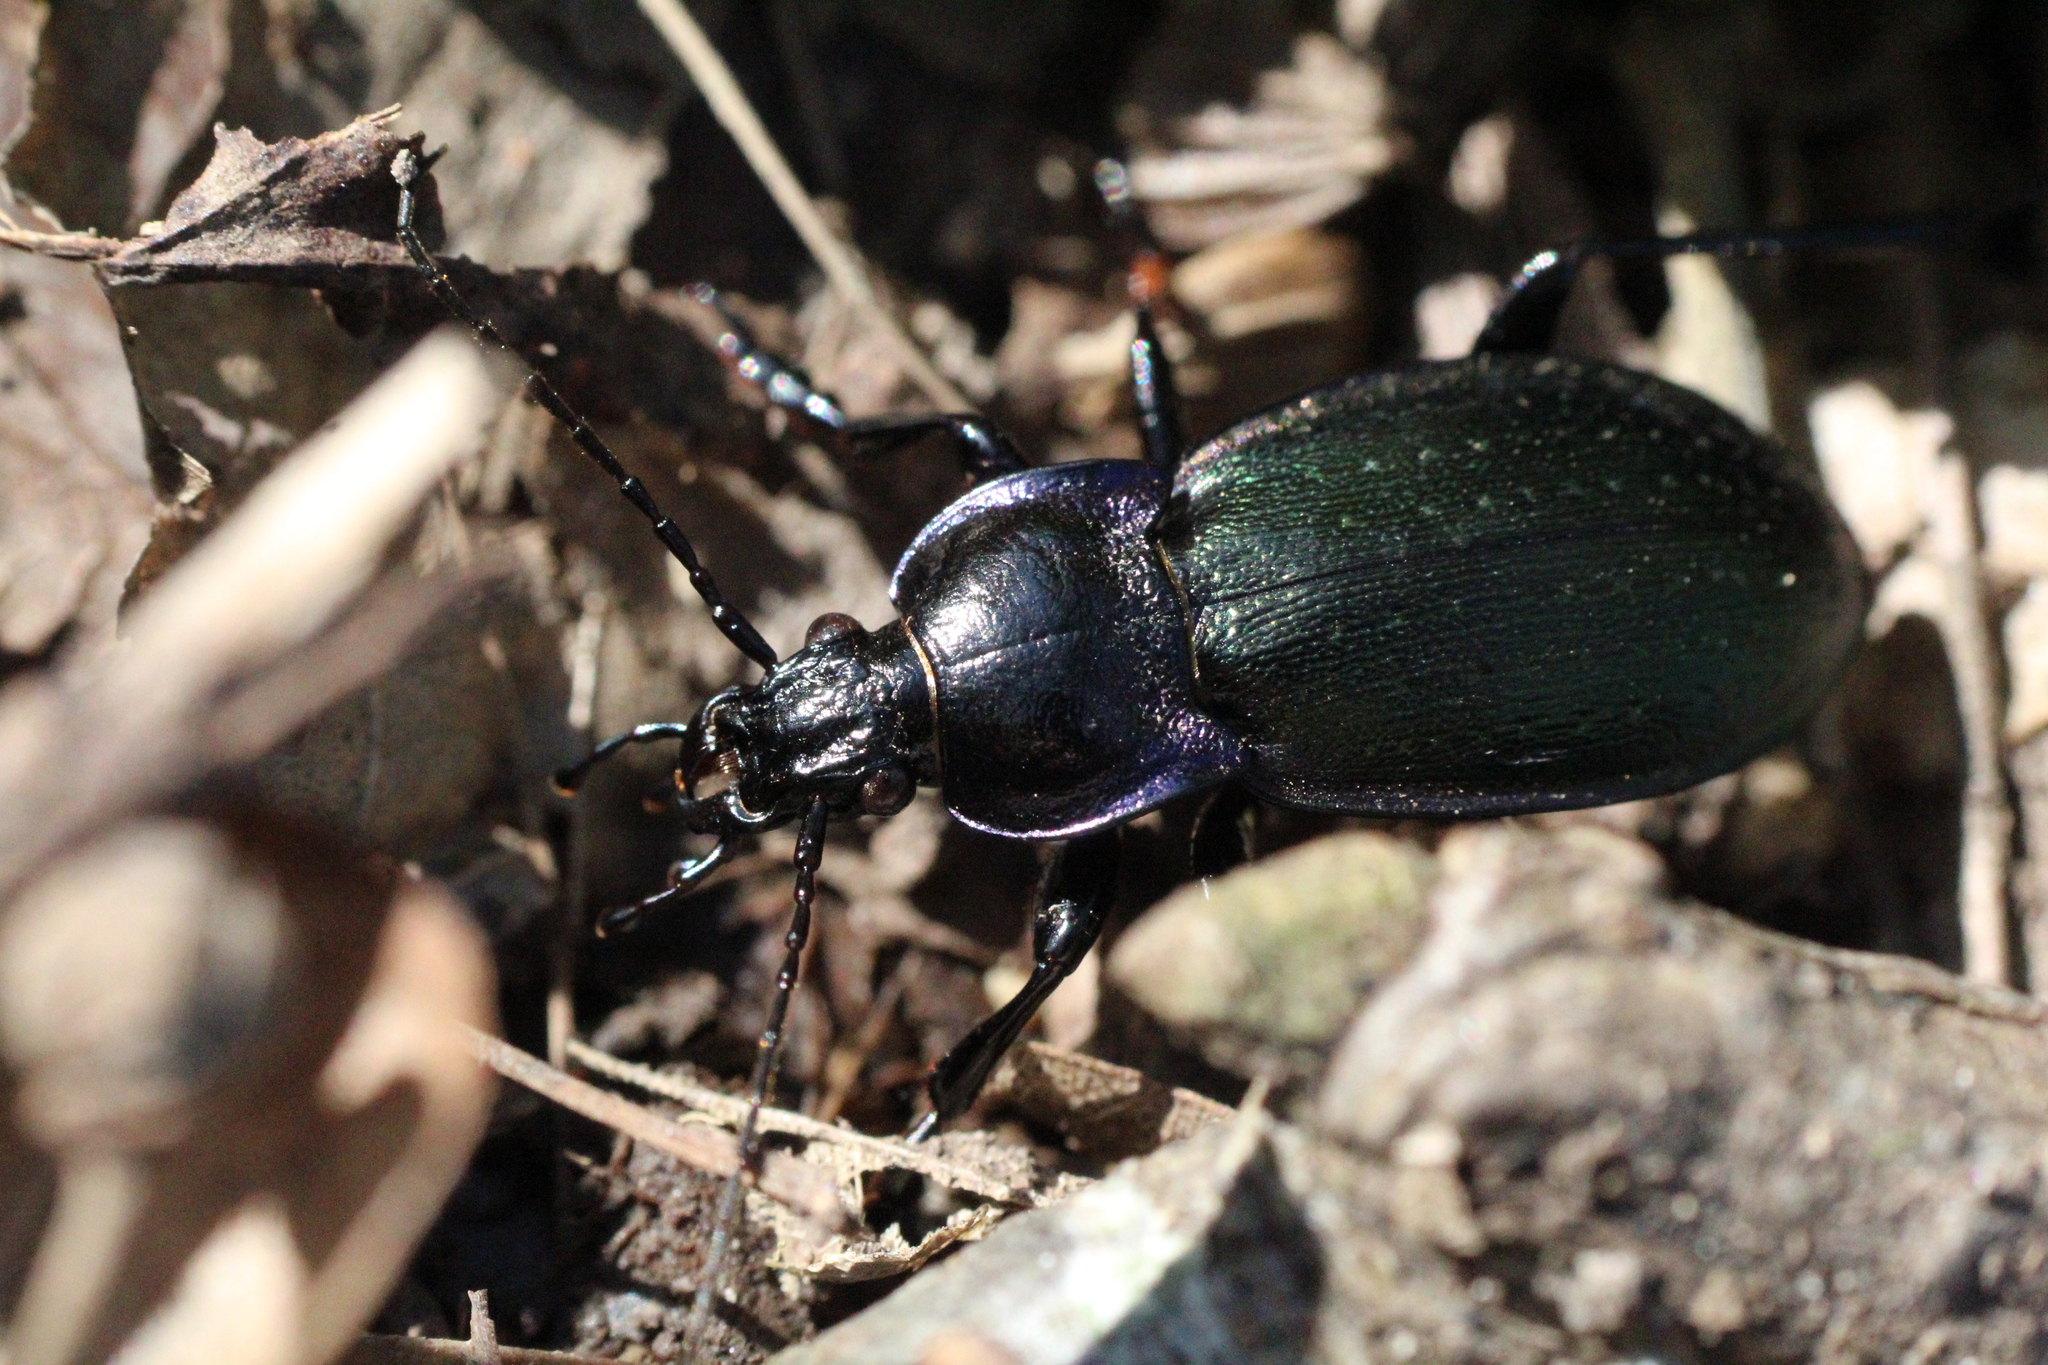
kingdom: Animalia
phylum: Arthropoda
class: Insecta
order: Coleoptera
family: Carabidae
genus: Carabus
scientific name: Carabus nemoralis
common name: European ground beetle
